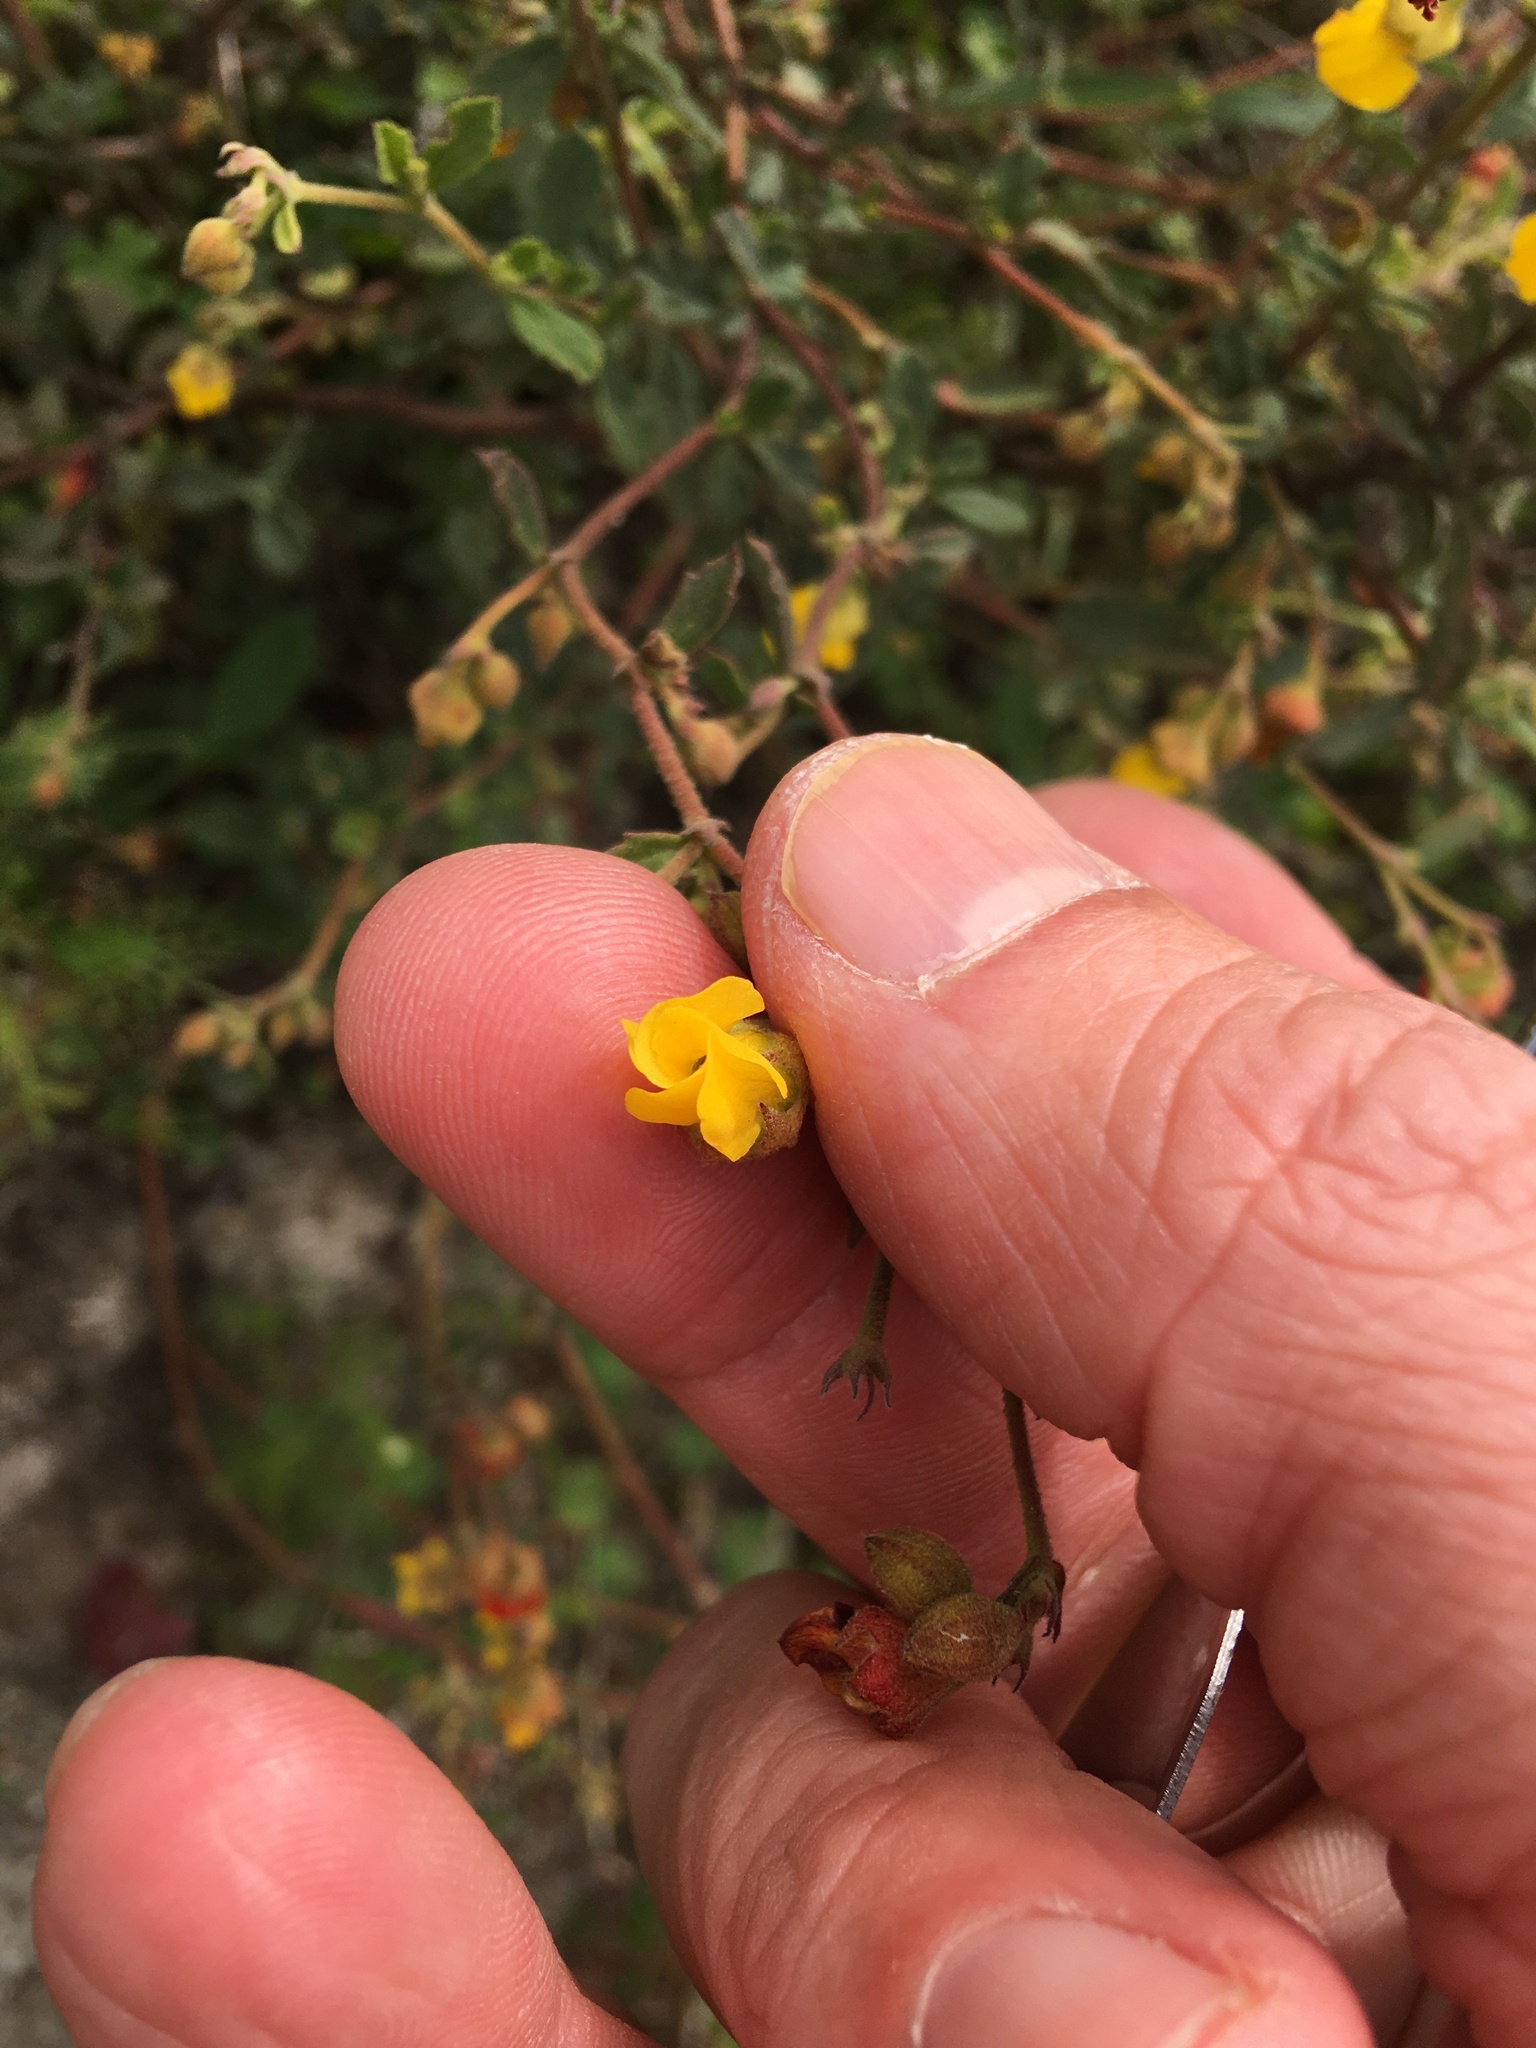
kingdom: Plantae
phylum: Tracheophyta
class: Magnoliopsida
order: Malvales
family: Malvaceae
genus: Hermannia
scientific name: Hermannia multiflora
